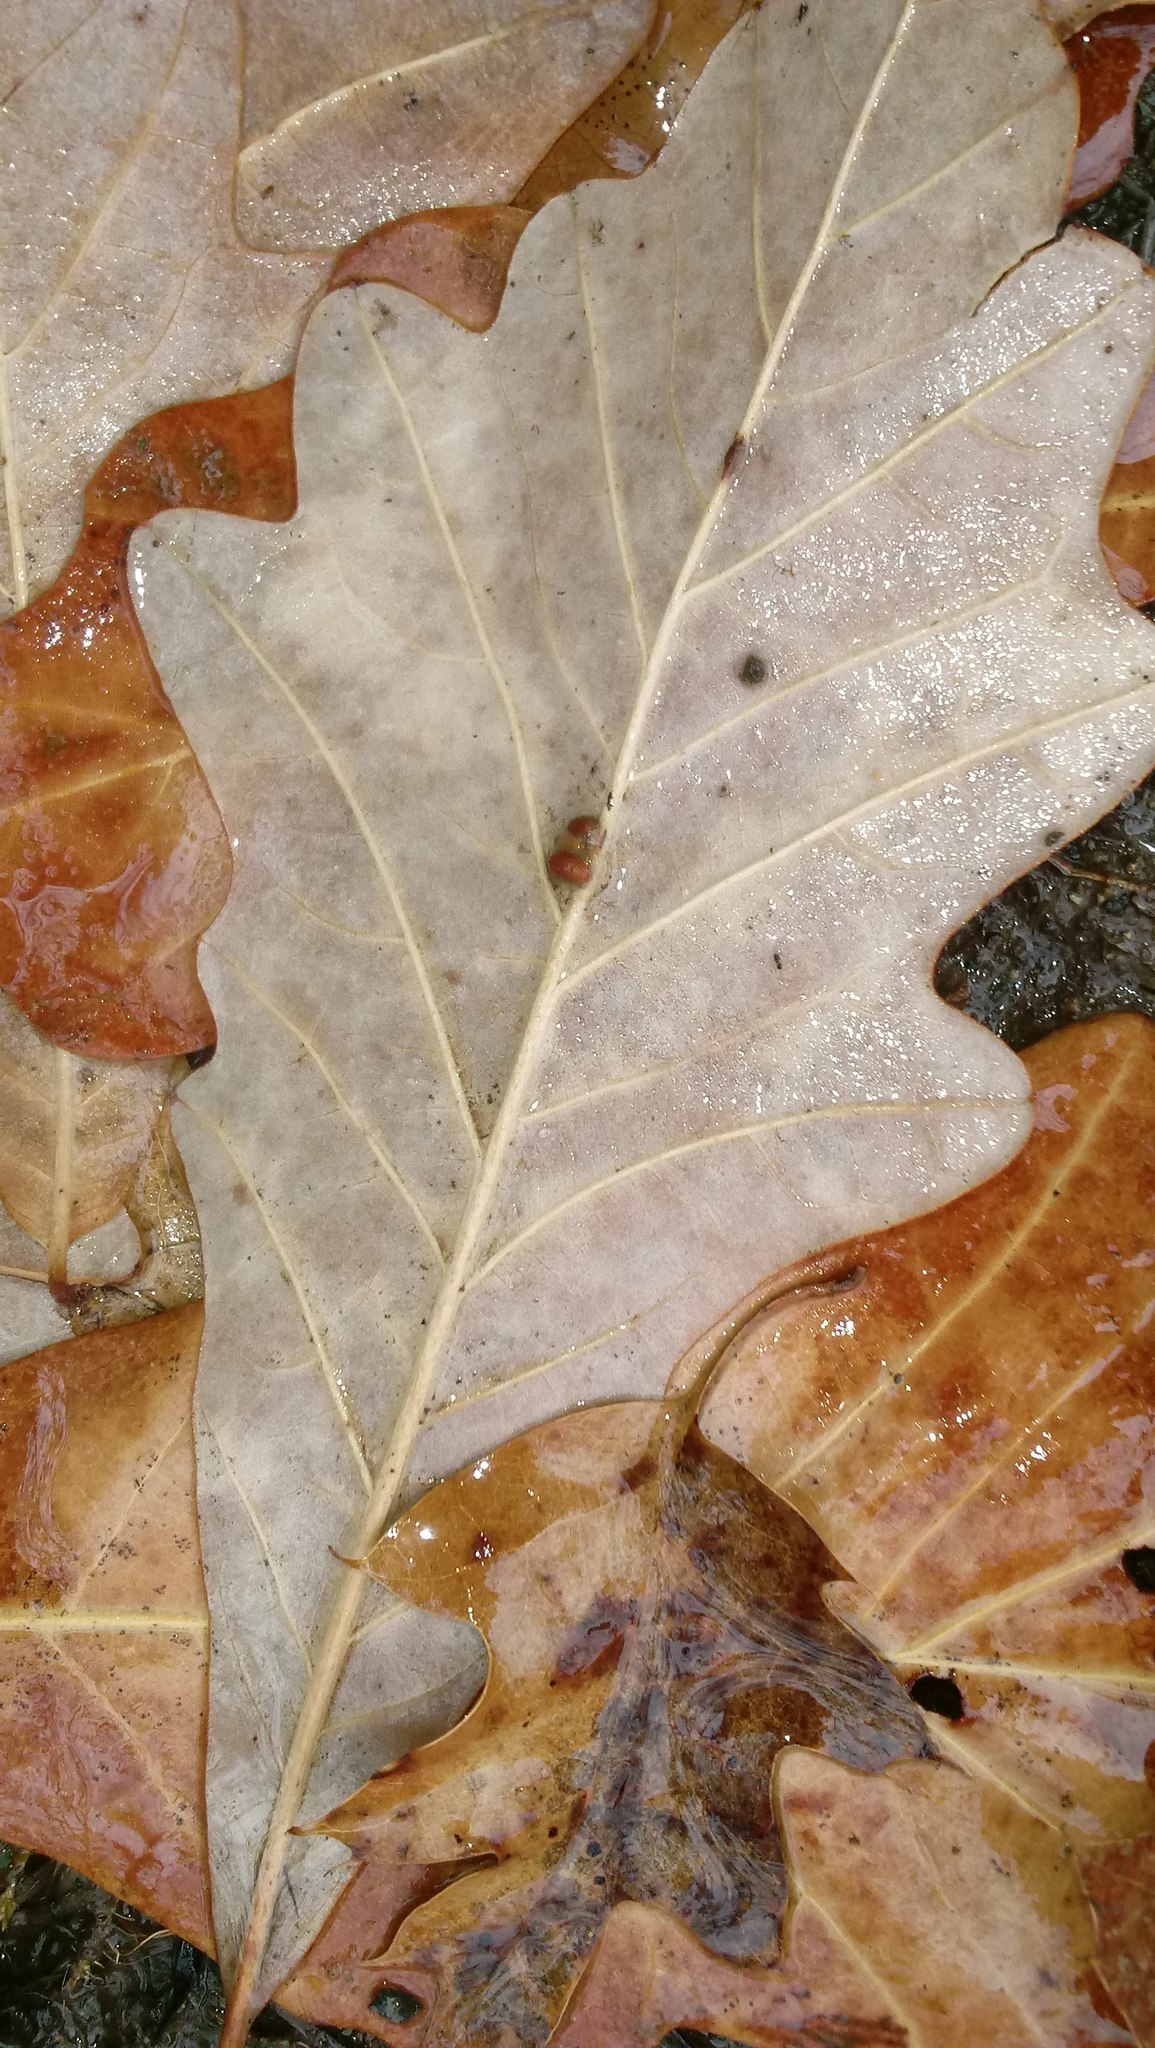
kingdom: Animalia
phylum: Arthropoda
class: Insecta
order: Hymenoptera
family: Cynipidae
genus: Andricus
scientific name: Andricus Druon ignotum
